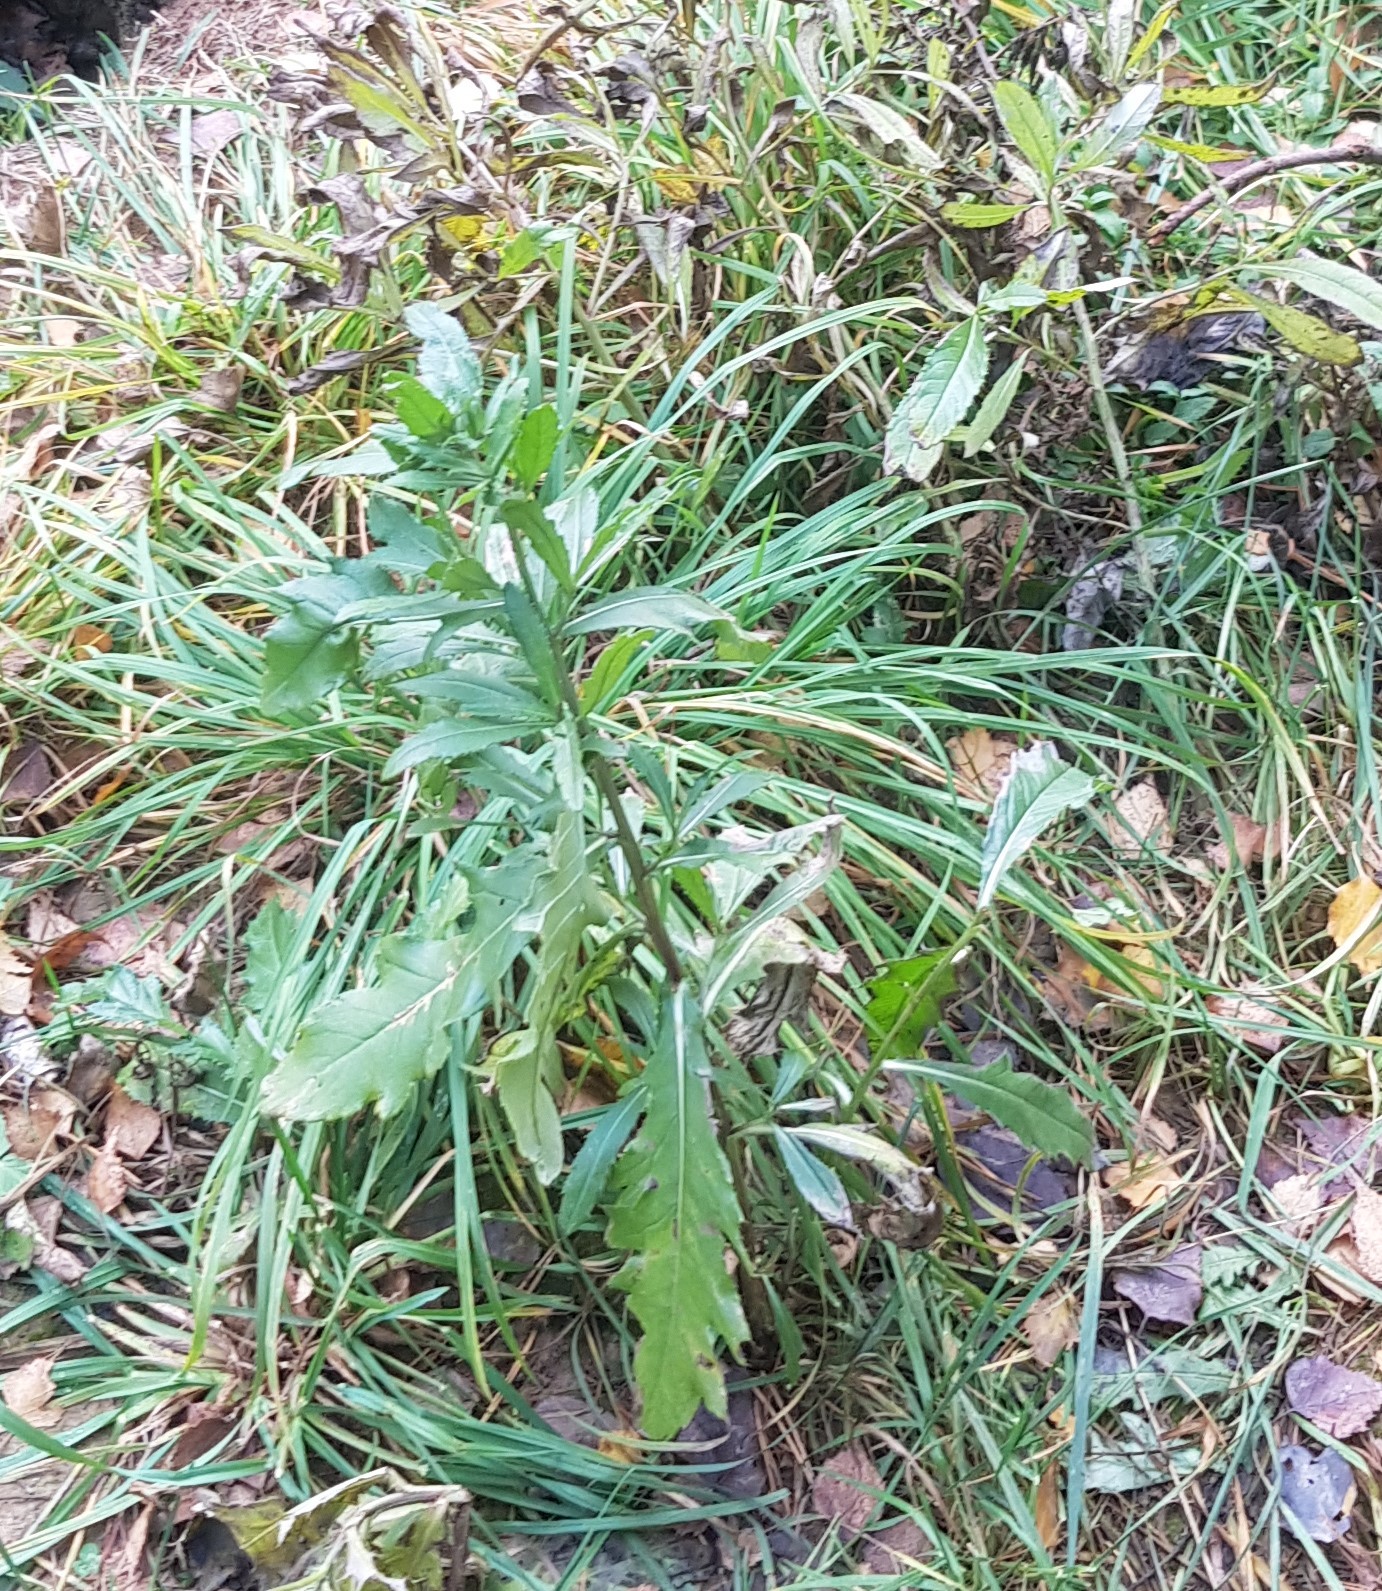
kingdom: Plantae
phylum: Tracheophyta
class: Magnoliopsida
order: Asterales
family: Asteraceae
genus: Cirsium
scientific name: Cirsium arvense
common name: Creeping thistle
